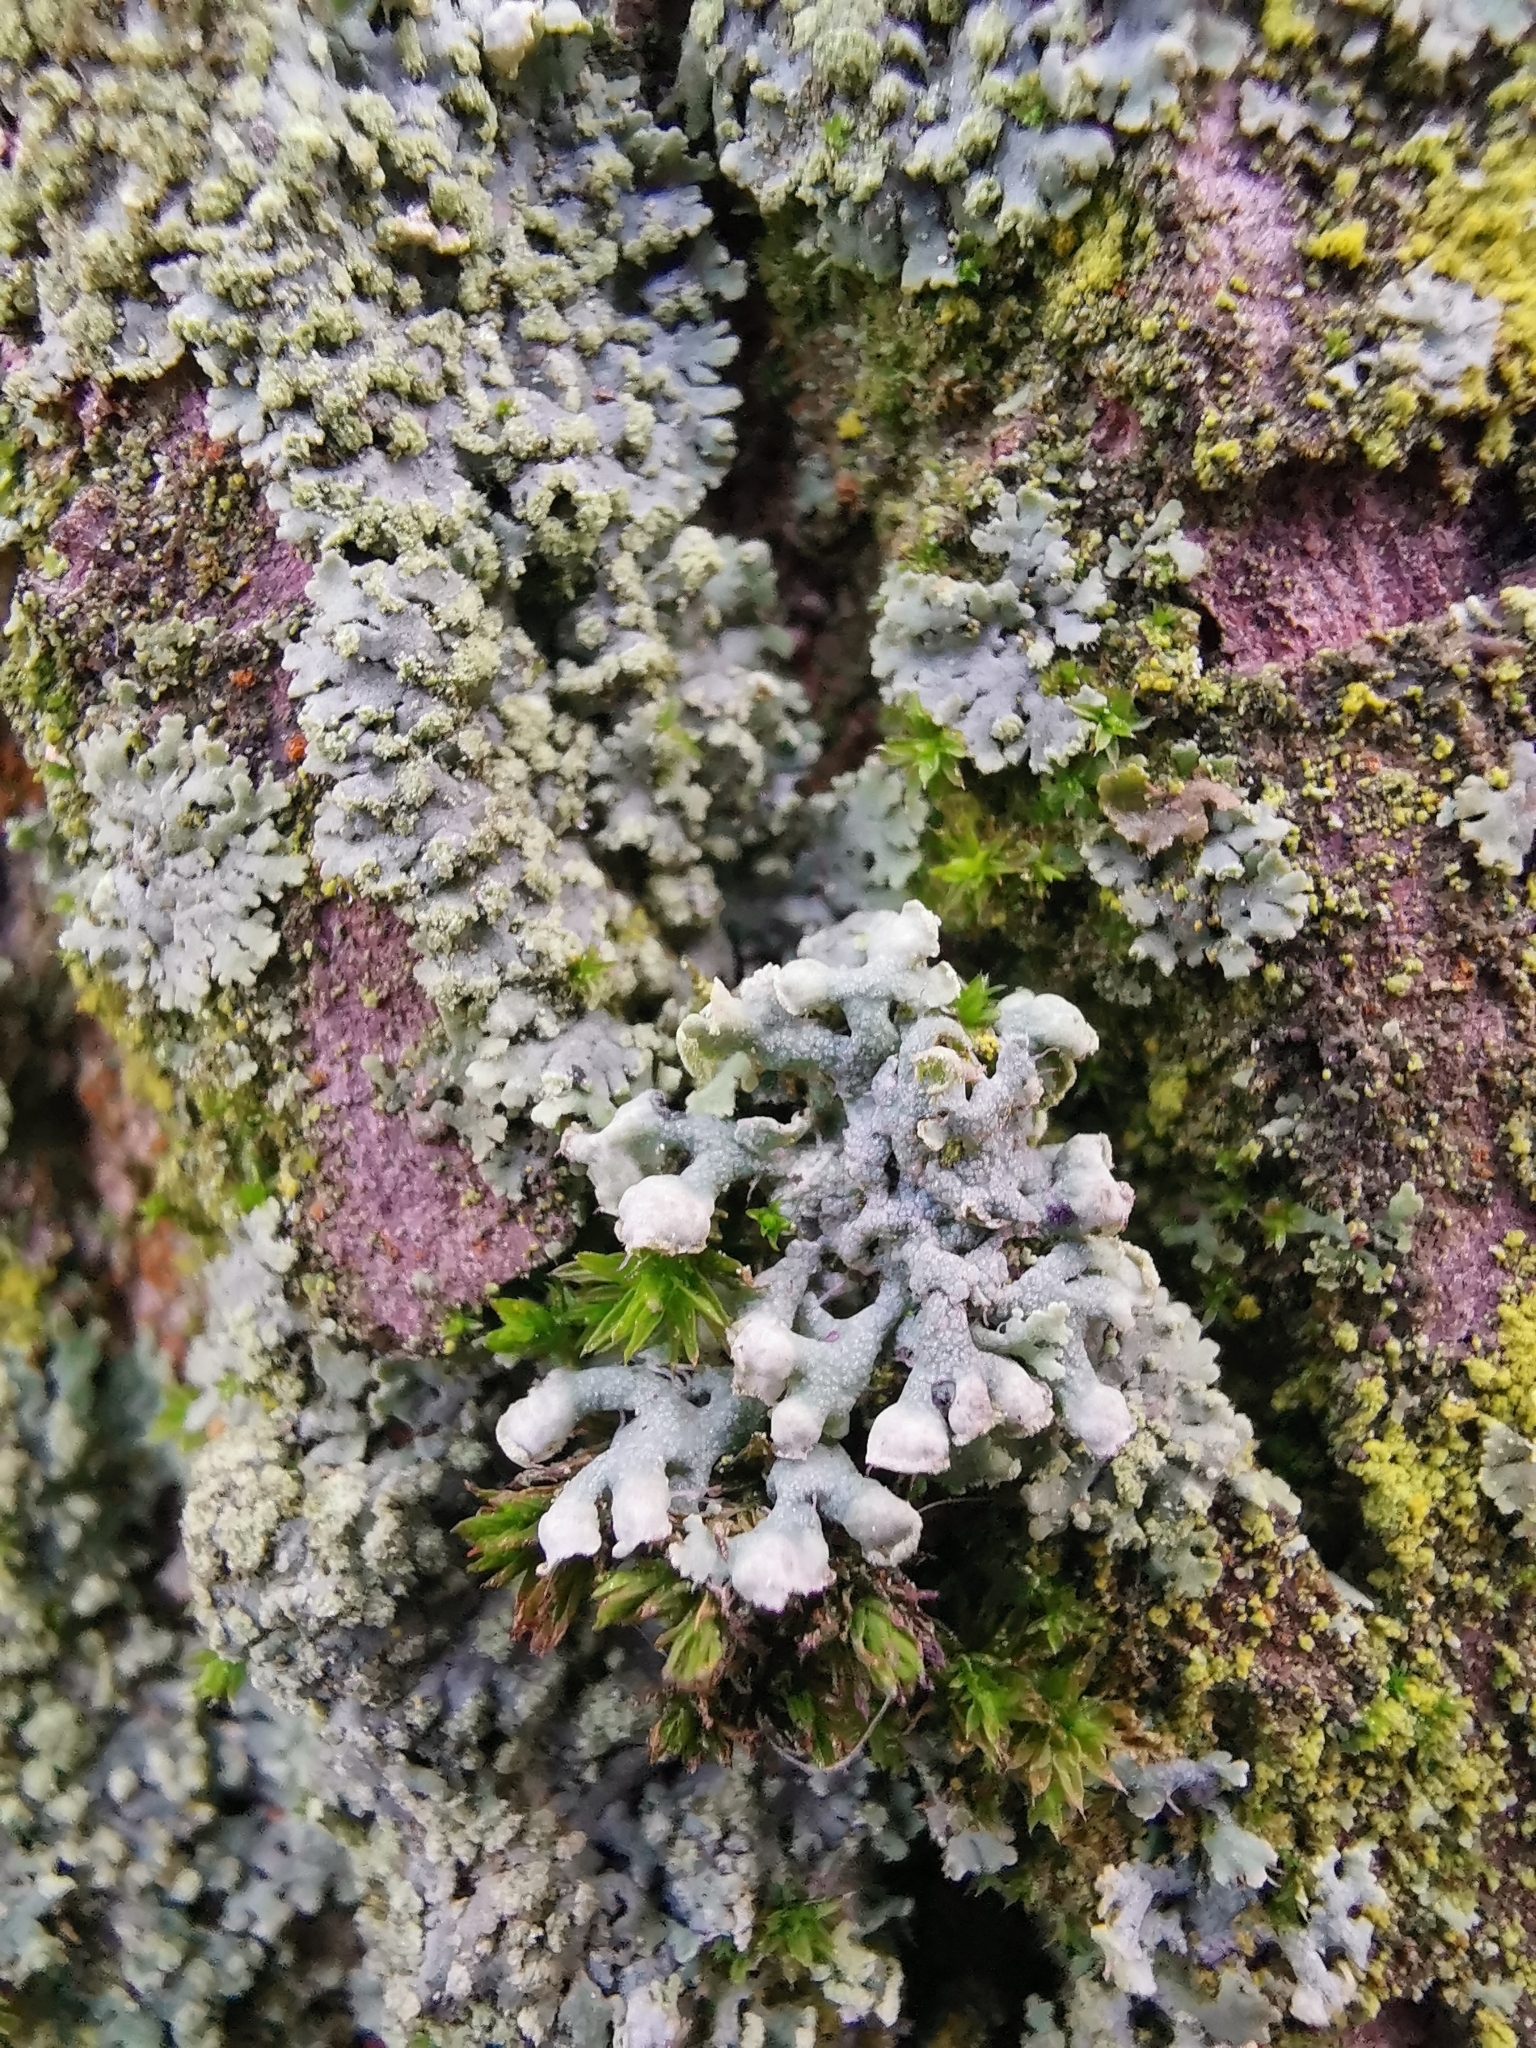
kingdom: Fungi
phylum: Ascomycota
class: Lecanoromycetes
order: Caliciales
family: Physciaceae
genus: Physcia
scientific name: Physcia adscendens
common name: Hooded rosette lichen
